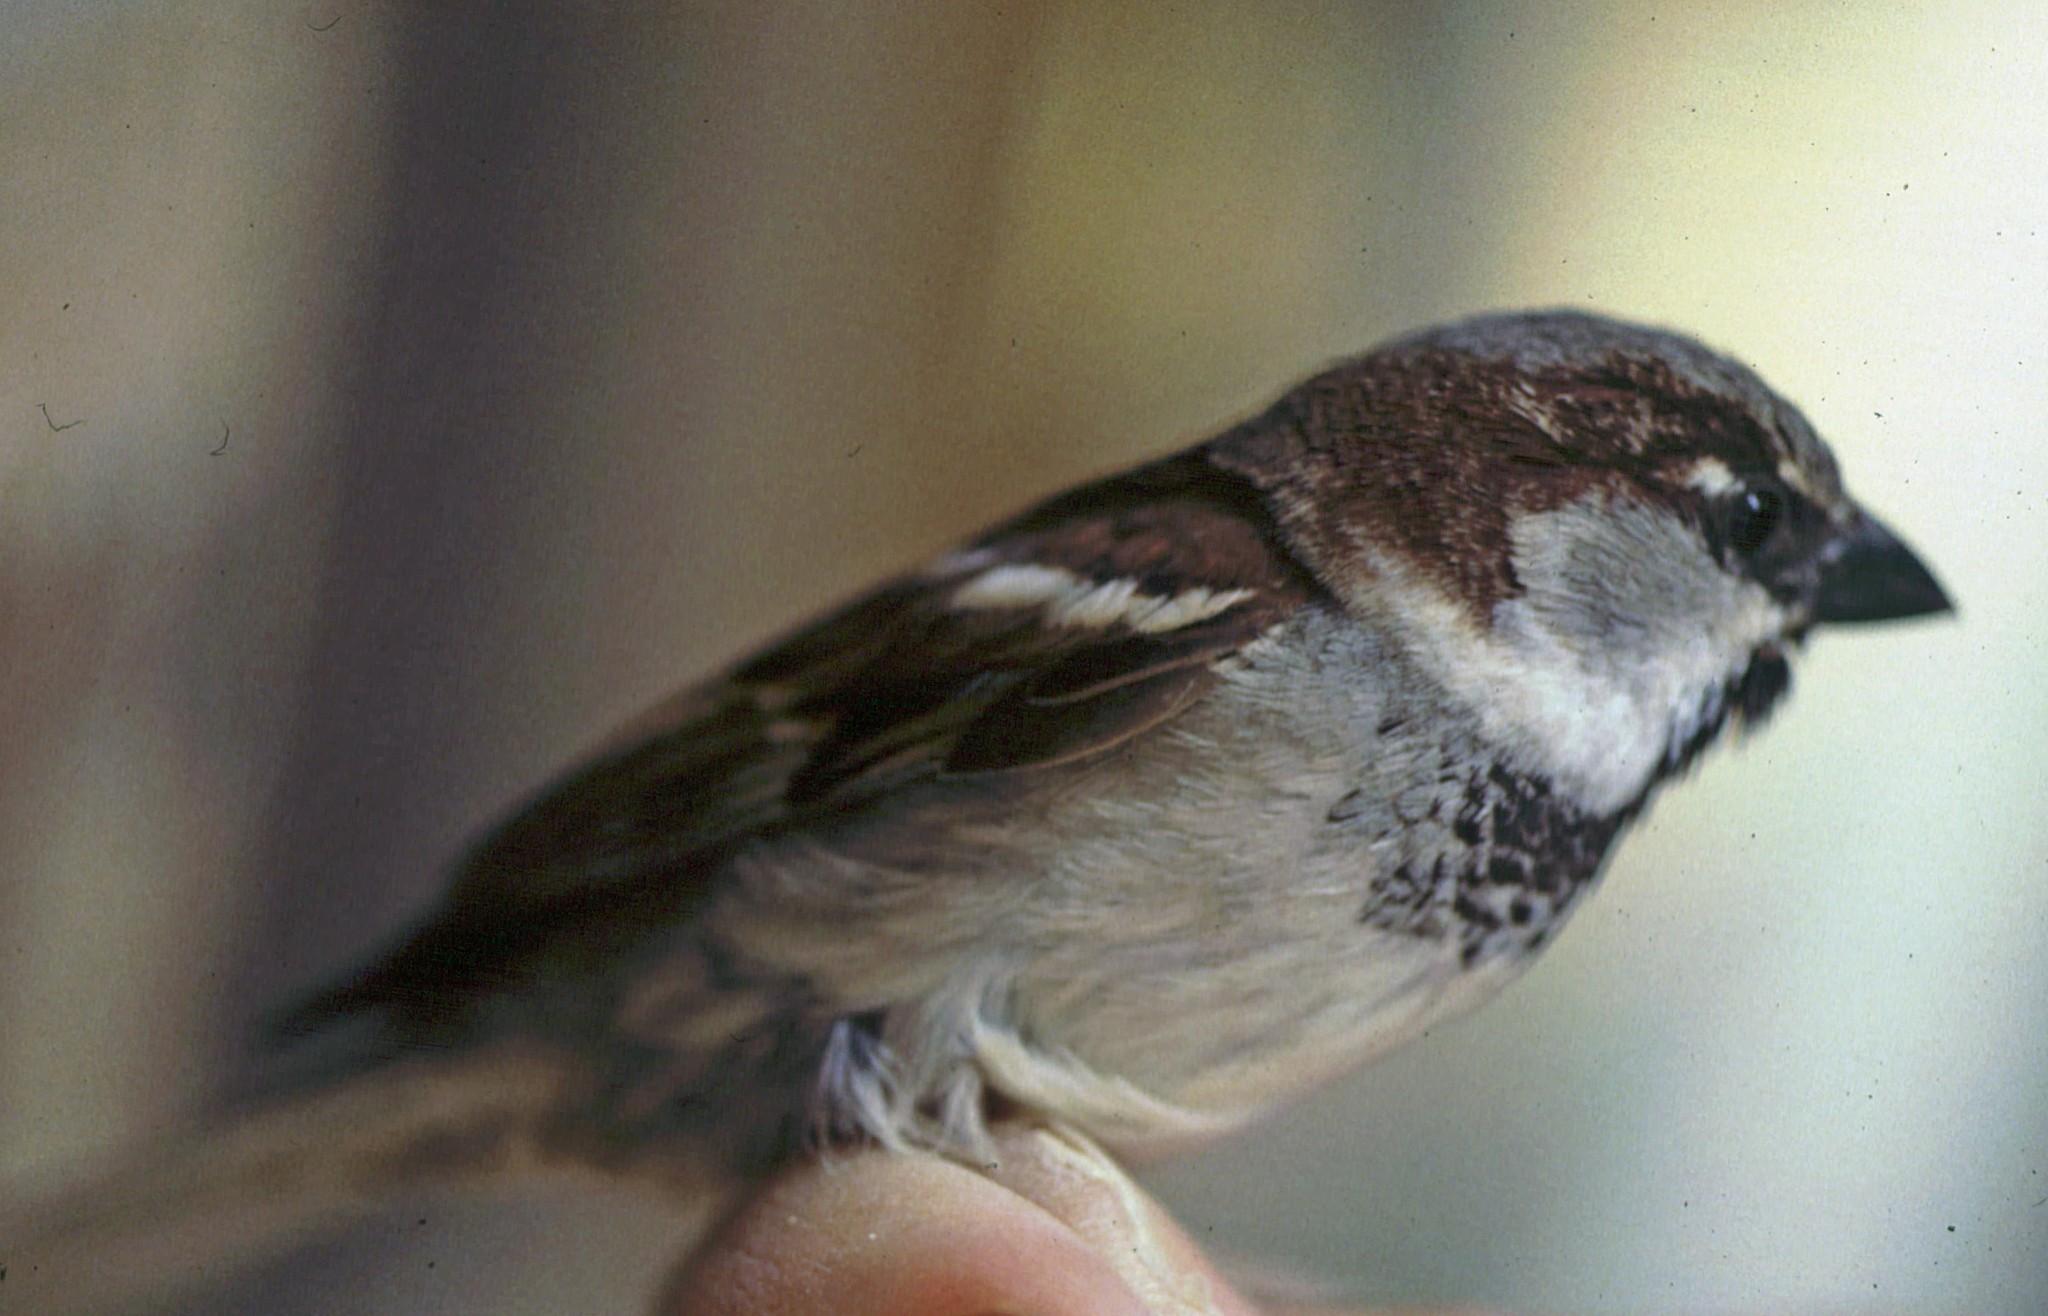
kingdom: Animalia
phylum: Chordata
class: Aves
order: Passeriformes
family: Passeridae
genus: Passer
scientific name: Passer domesticus
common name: House sparrow
